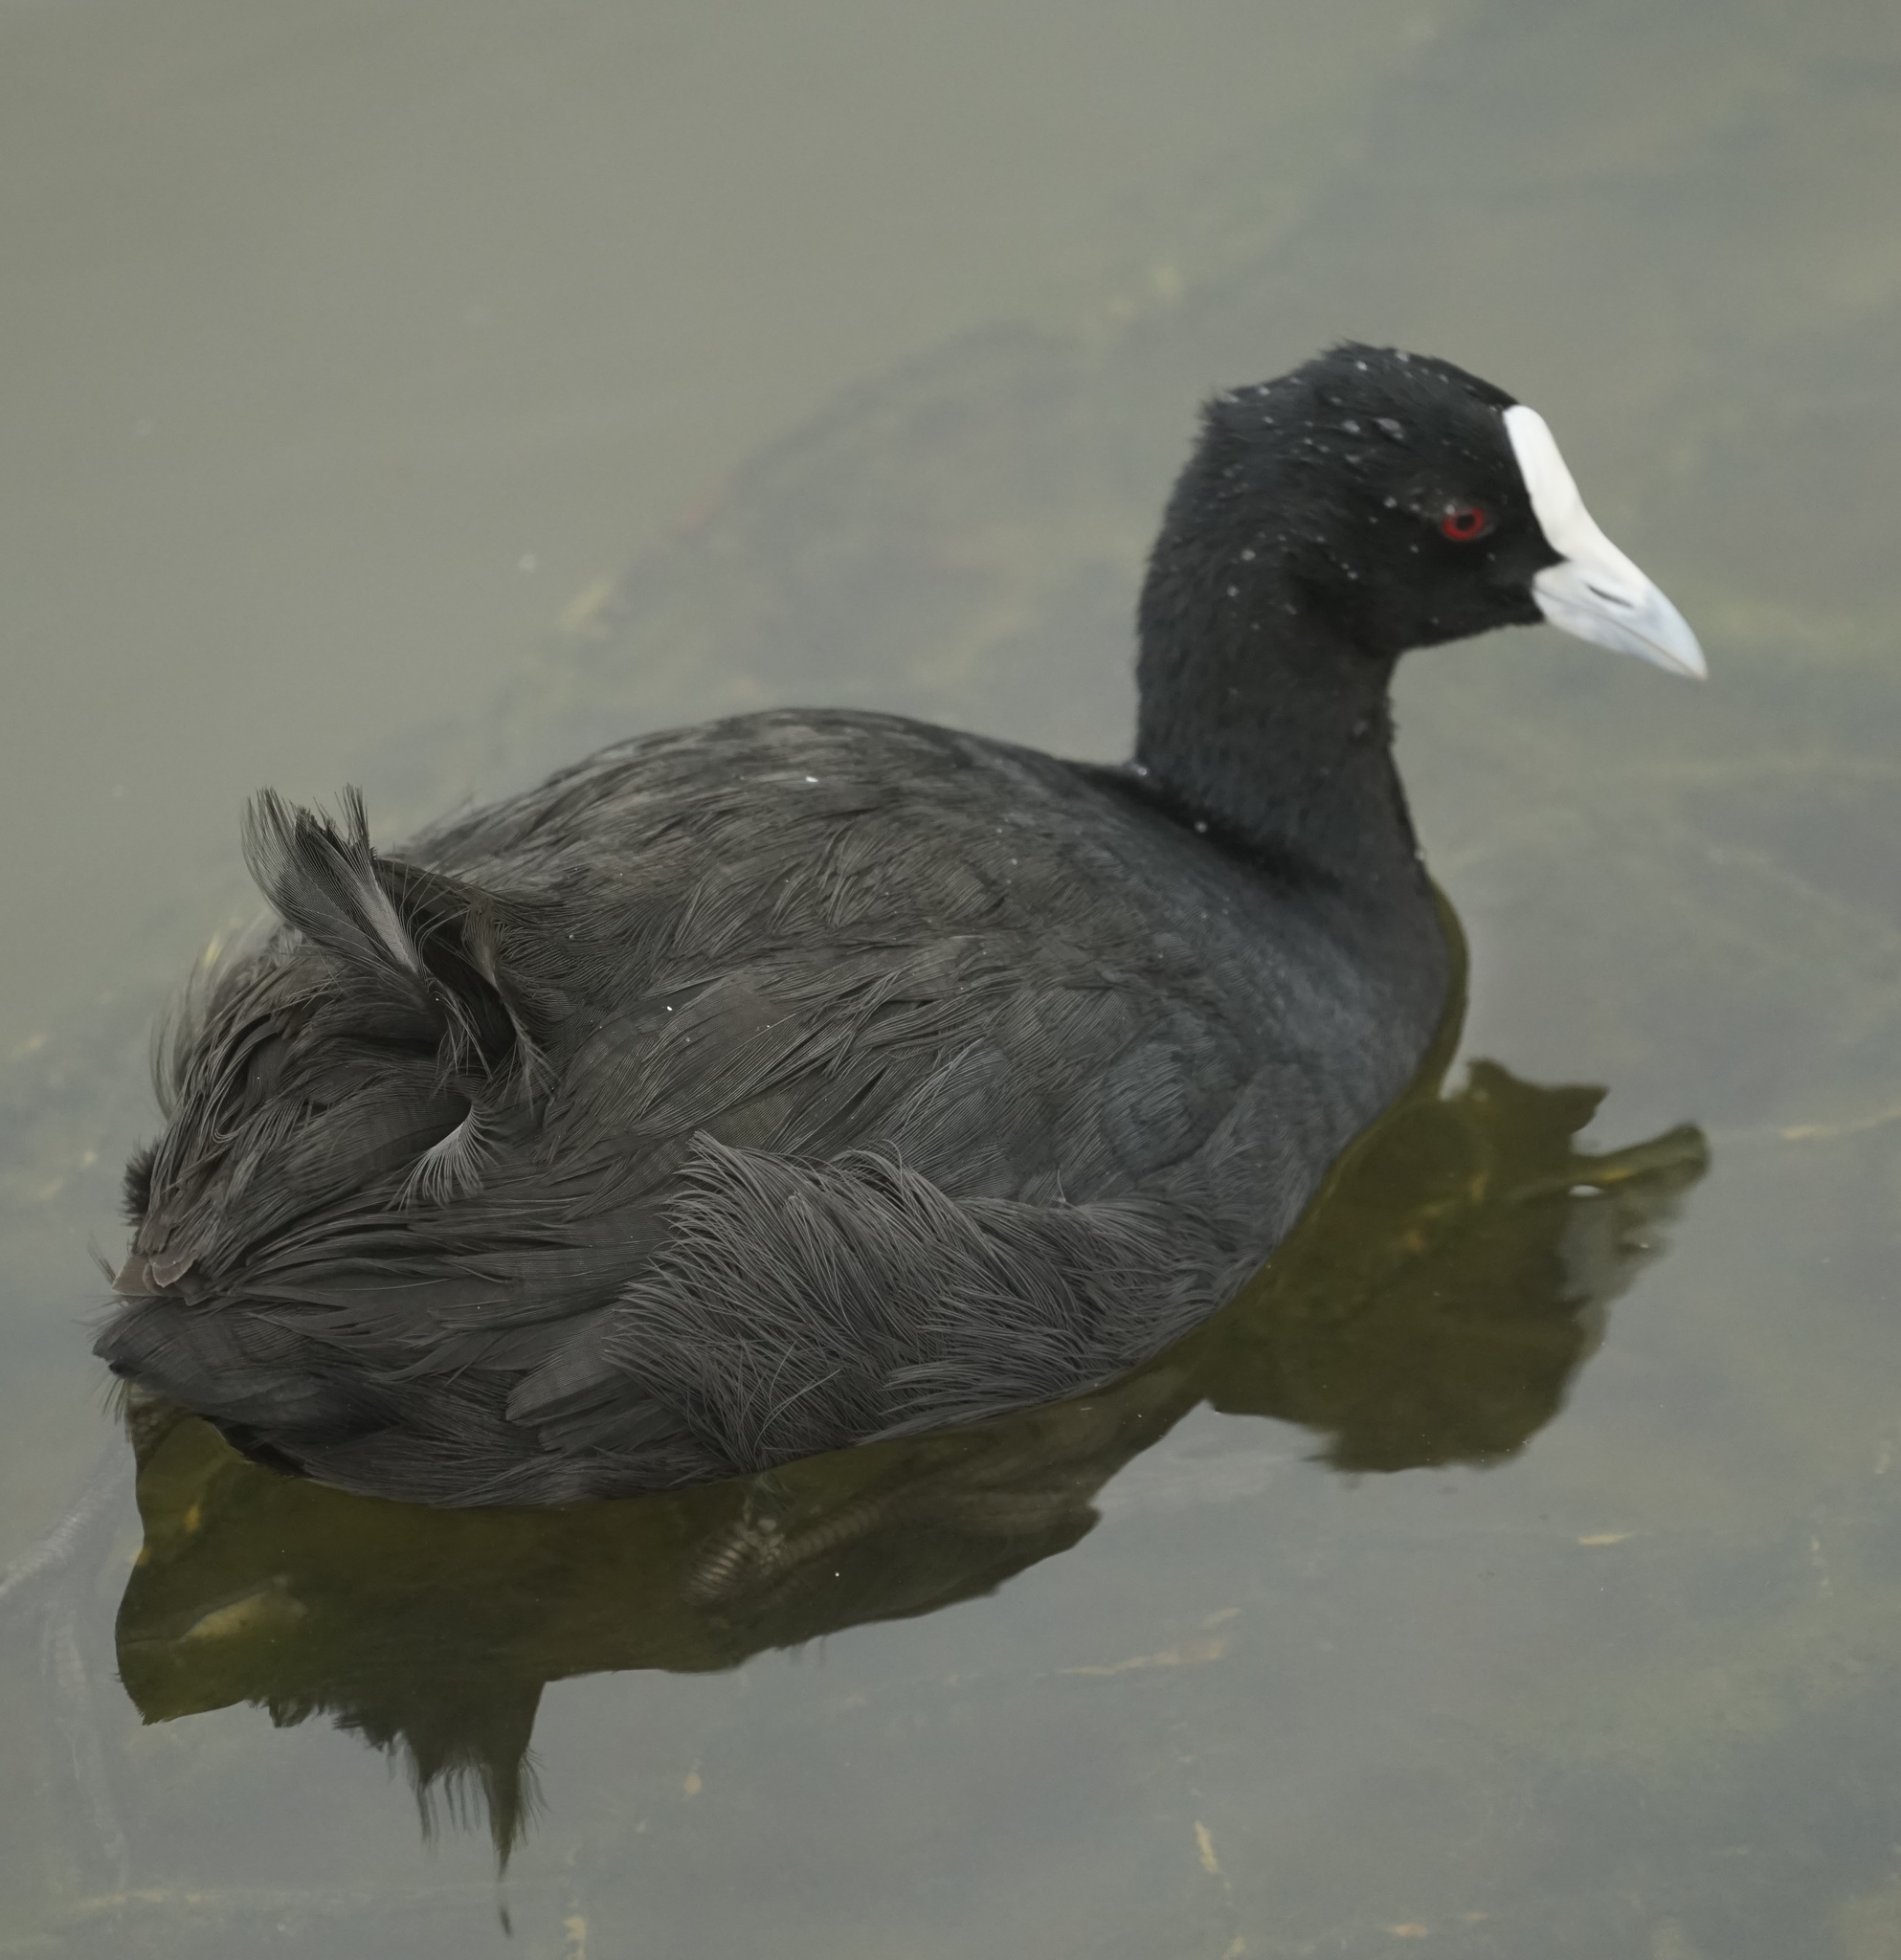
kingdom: Animalia
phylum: Chordata
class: Aves
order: Gruiformes
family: Rallidae
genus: Fulica
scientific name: Fulica atra
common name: Eurasian coot
